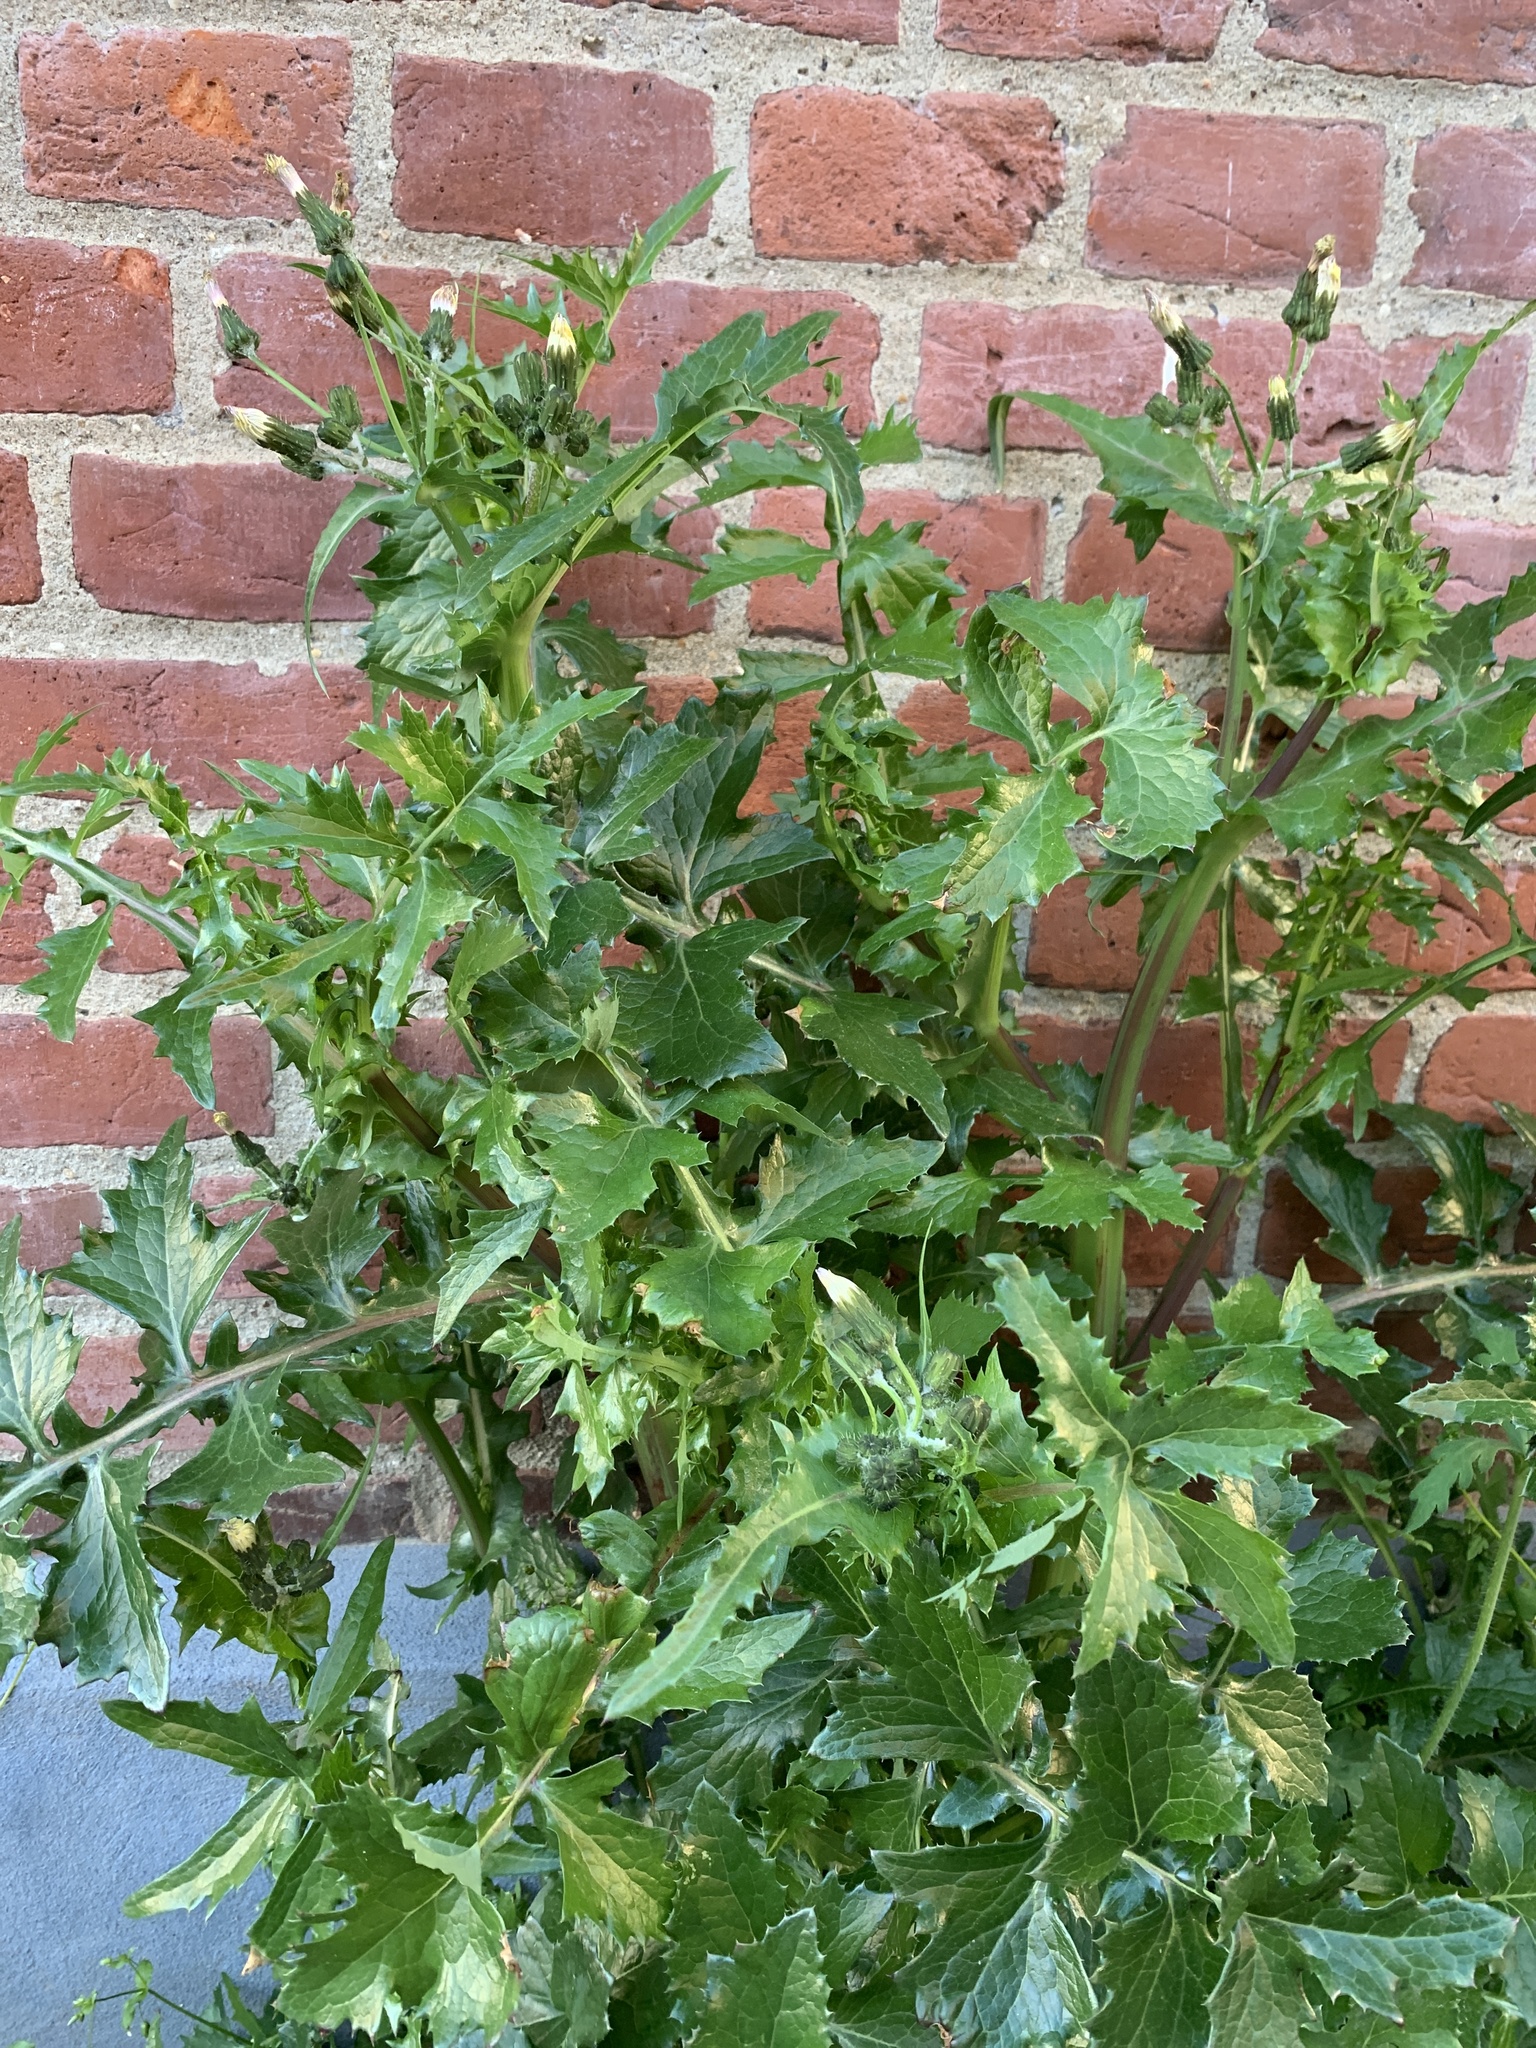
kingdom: Plantae
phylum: Tracheophyta
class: Magnoliopsida
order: Asterales
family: Asteraceae
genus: Sonchus
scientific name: Sonchus asper
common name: Prickly sow-thistle
